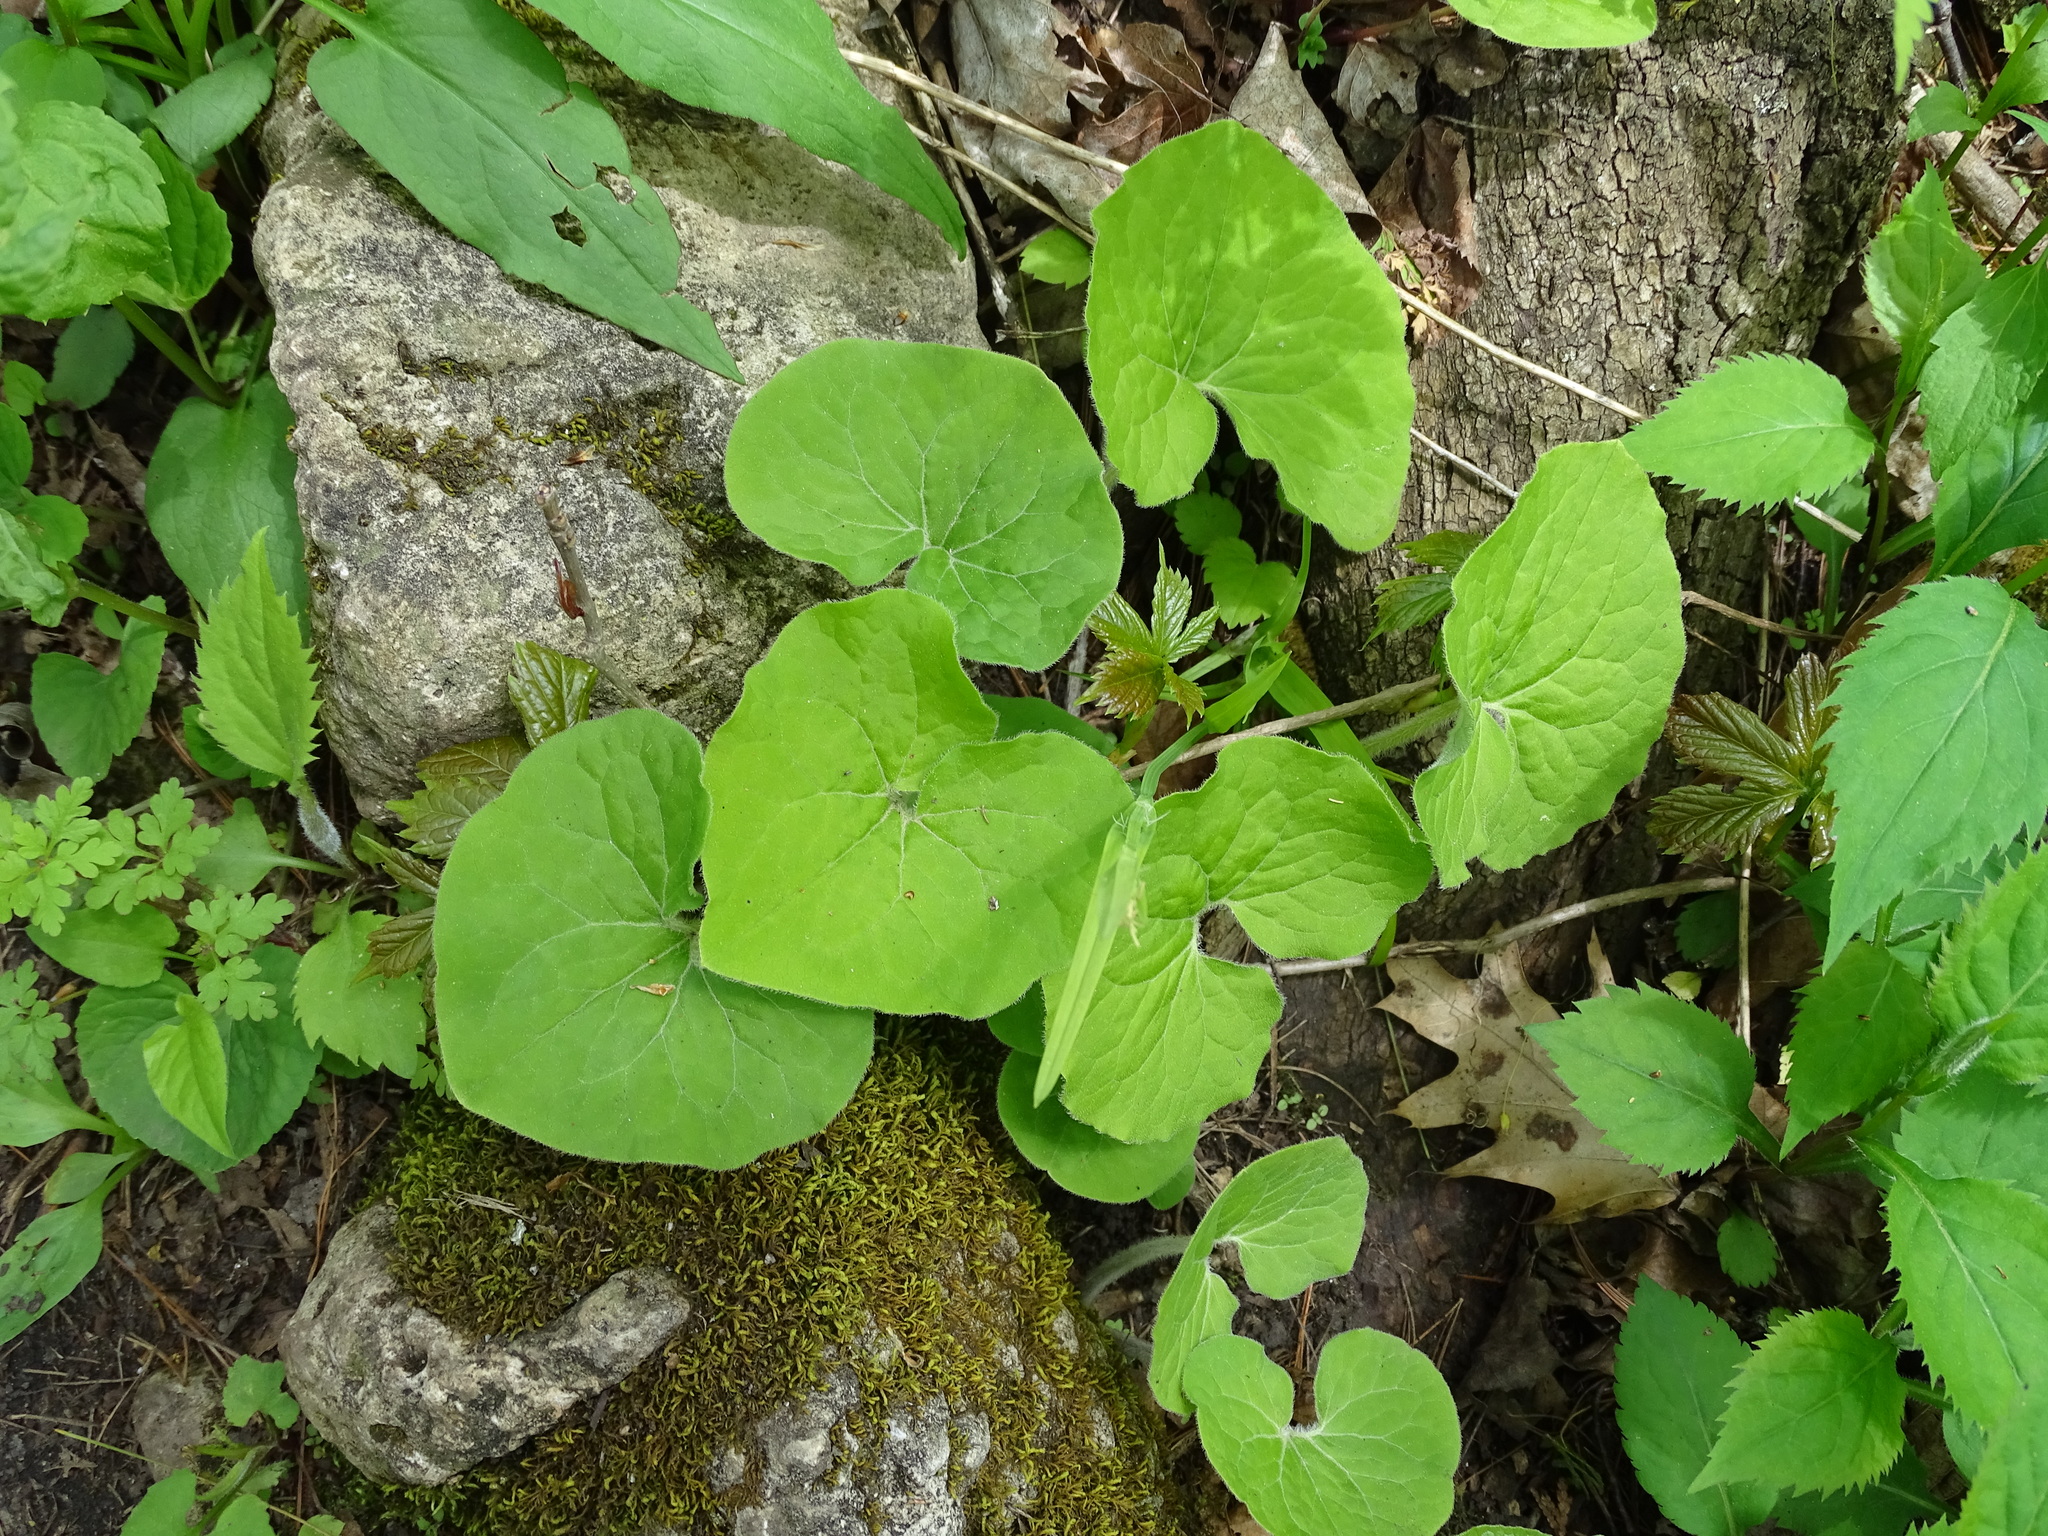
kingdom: Plantae
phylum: Tracheophyta
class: Magnoliopsida
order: Piperales
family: Aristolochiaceae
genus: Asarum
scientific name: Asarum canadense
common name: Wild ginger
